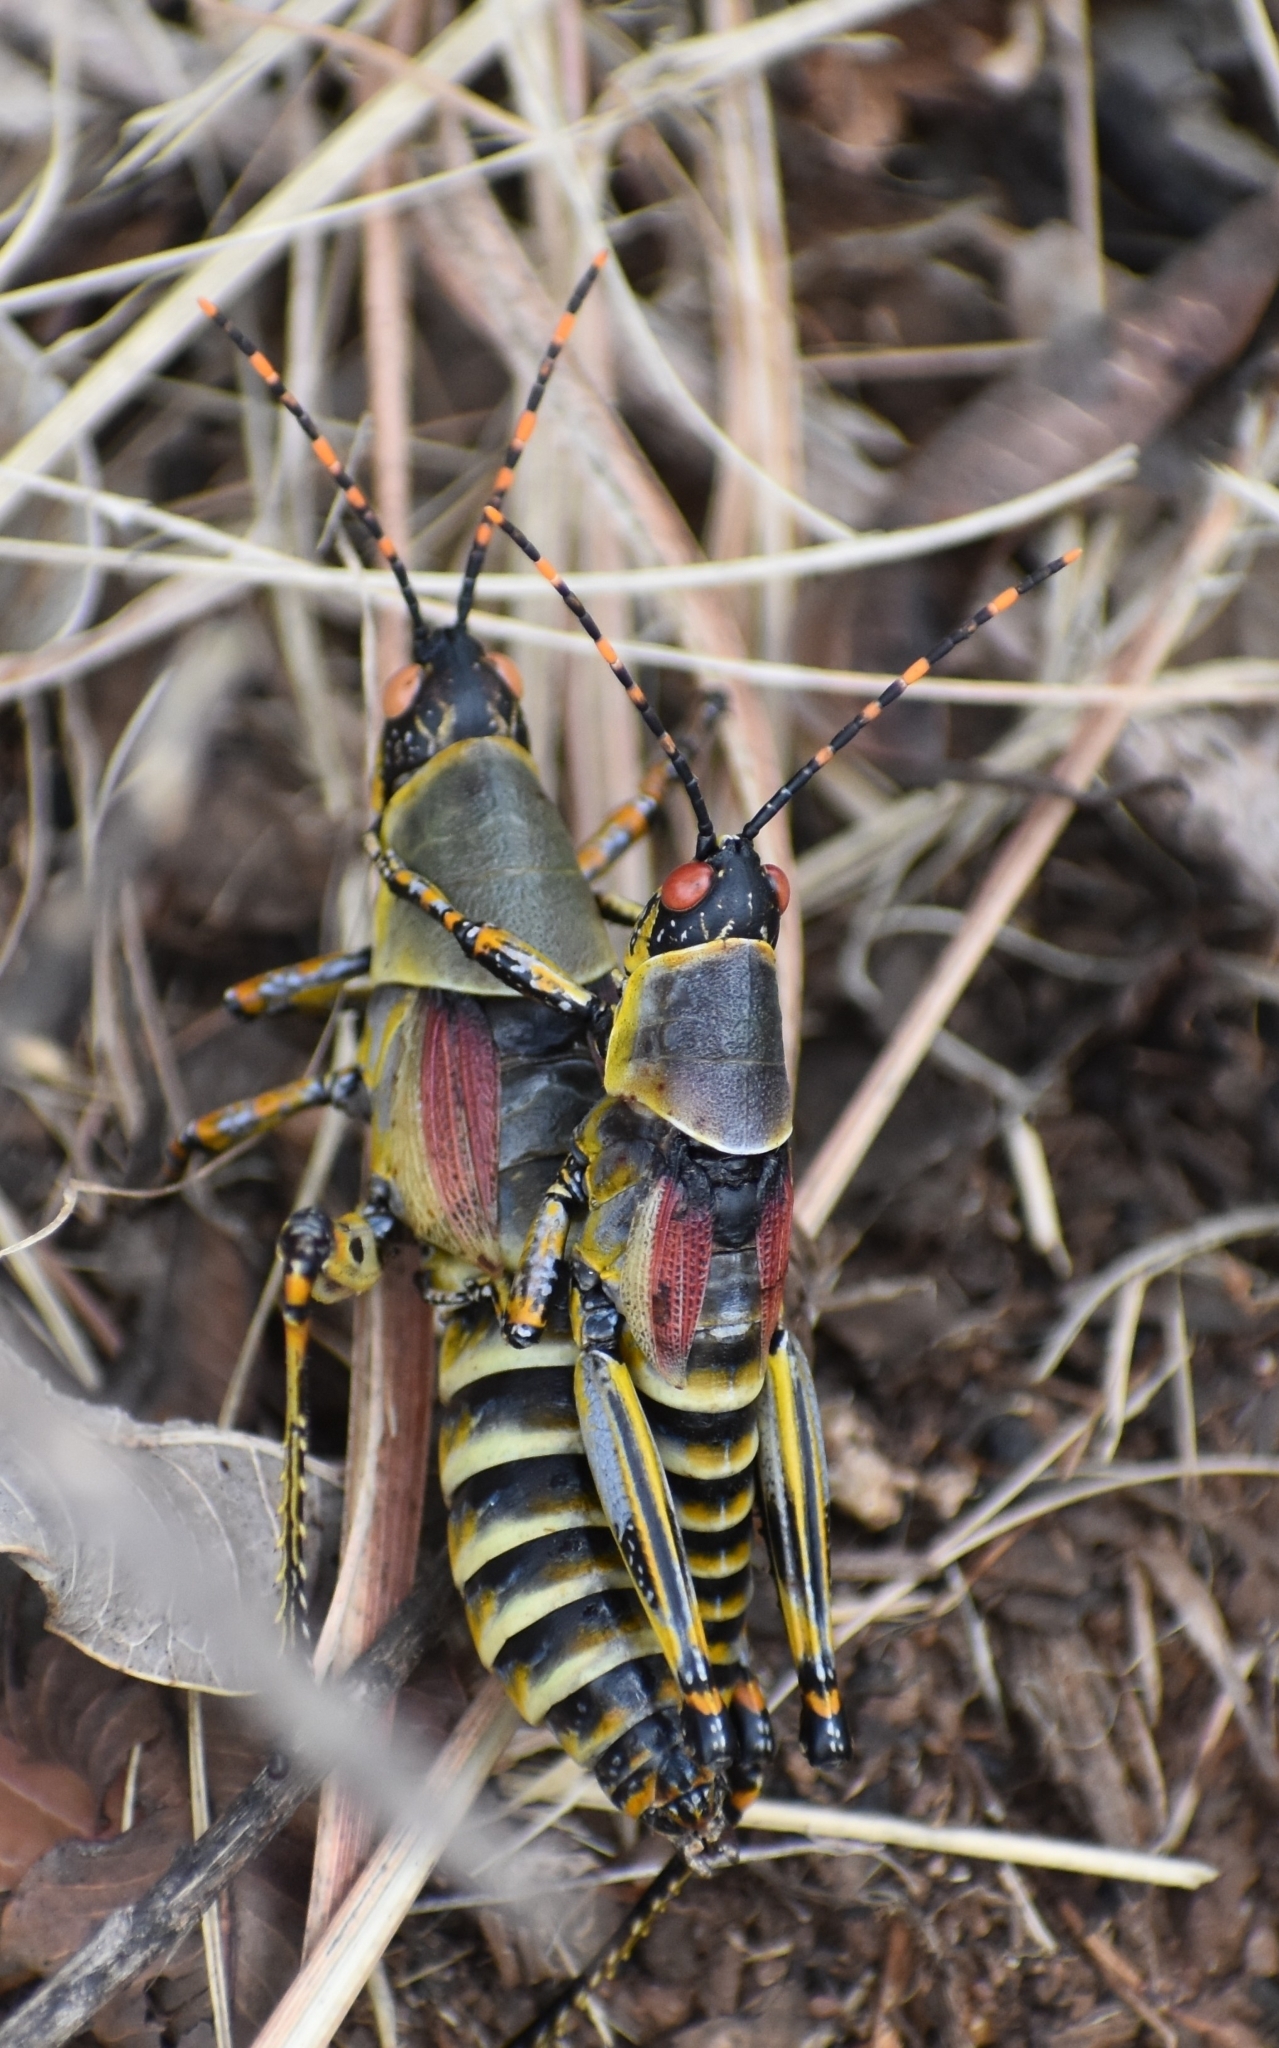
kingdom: Animalia
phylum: Arthropoda
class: Insecta
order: Orthoptera
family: Pyrgomorphidae
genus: Zonocerus
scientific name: Zonocerus elegans
